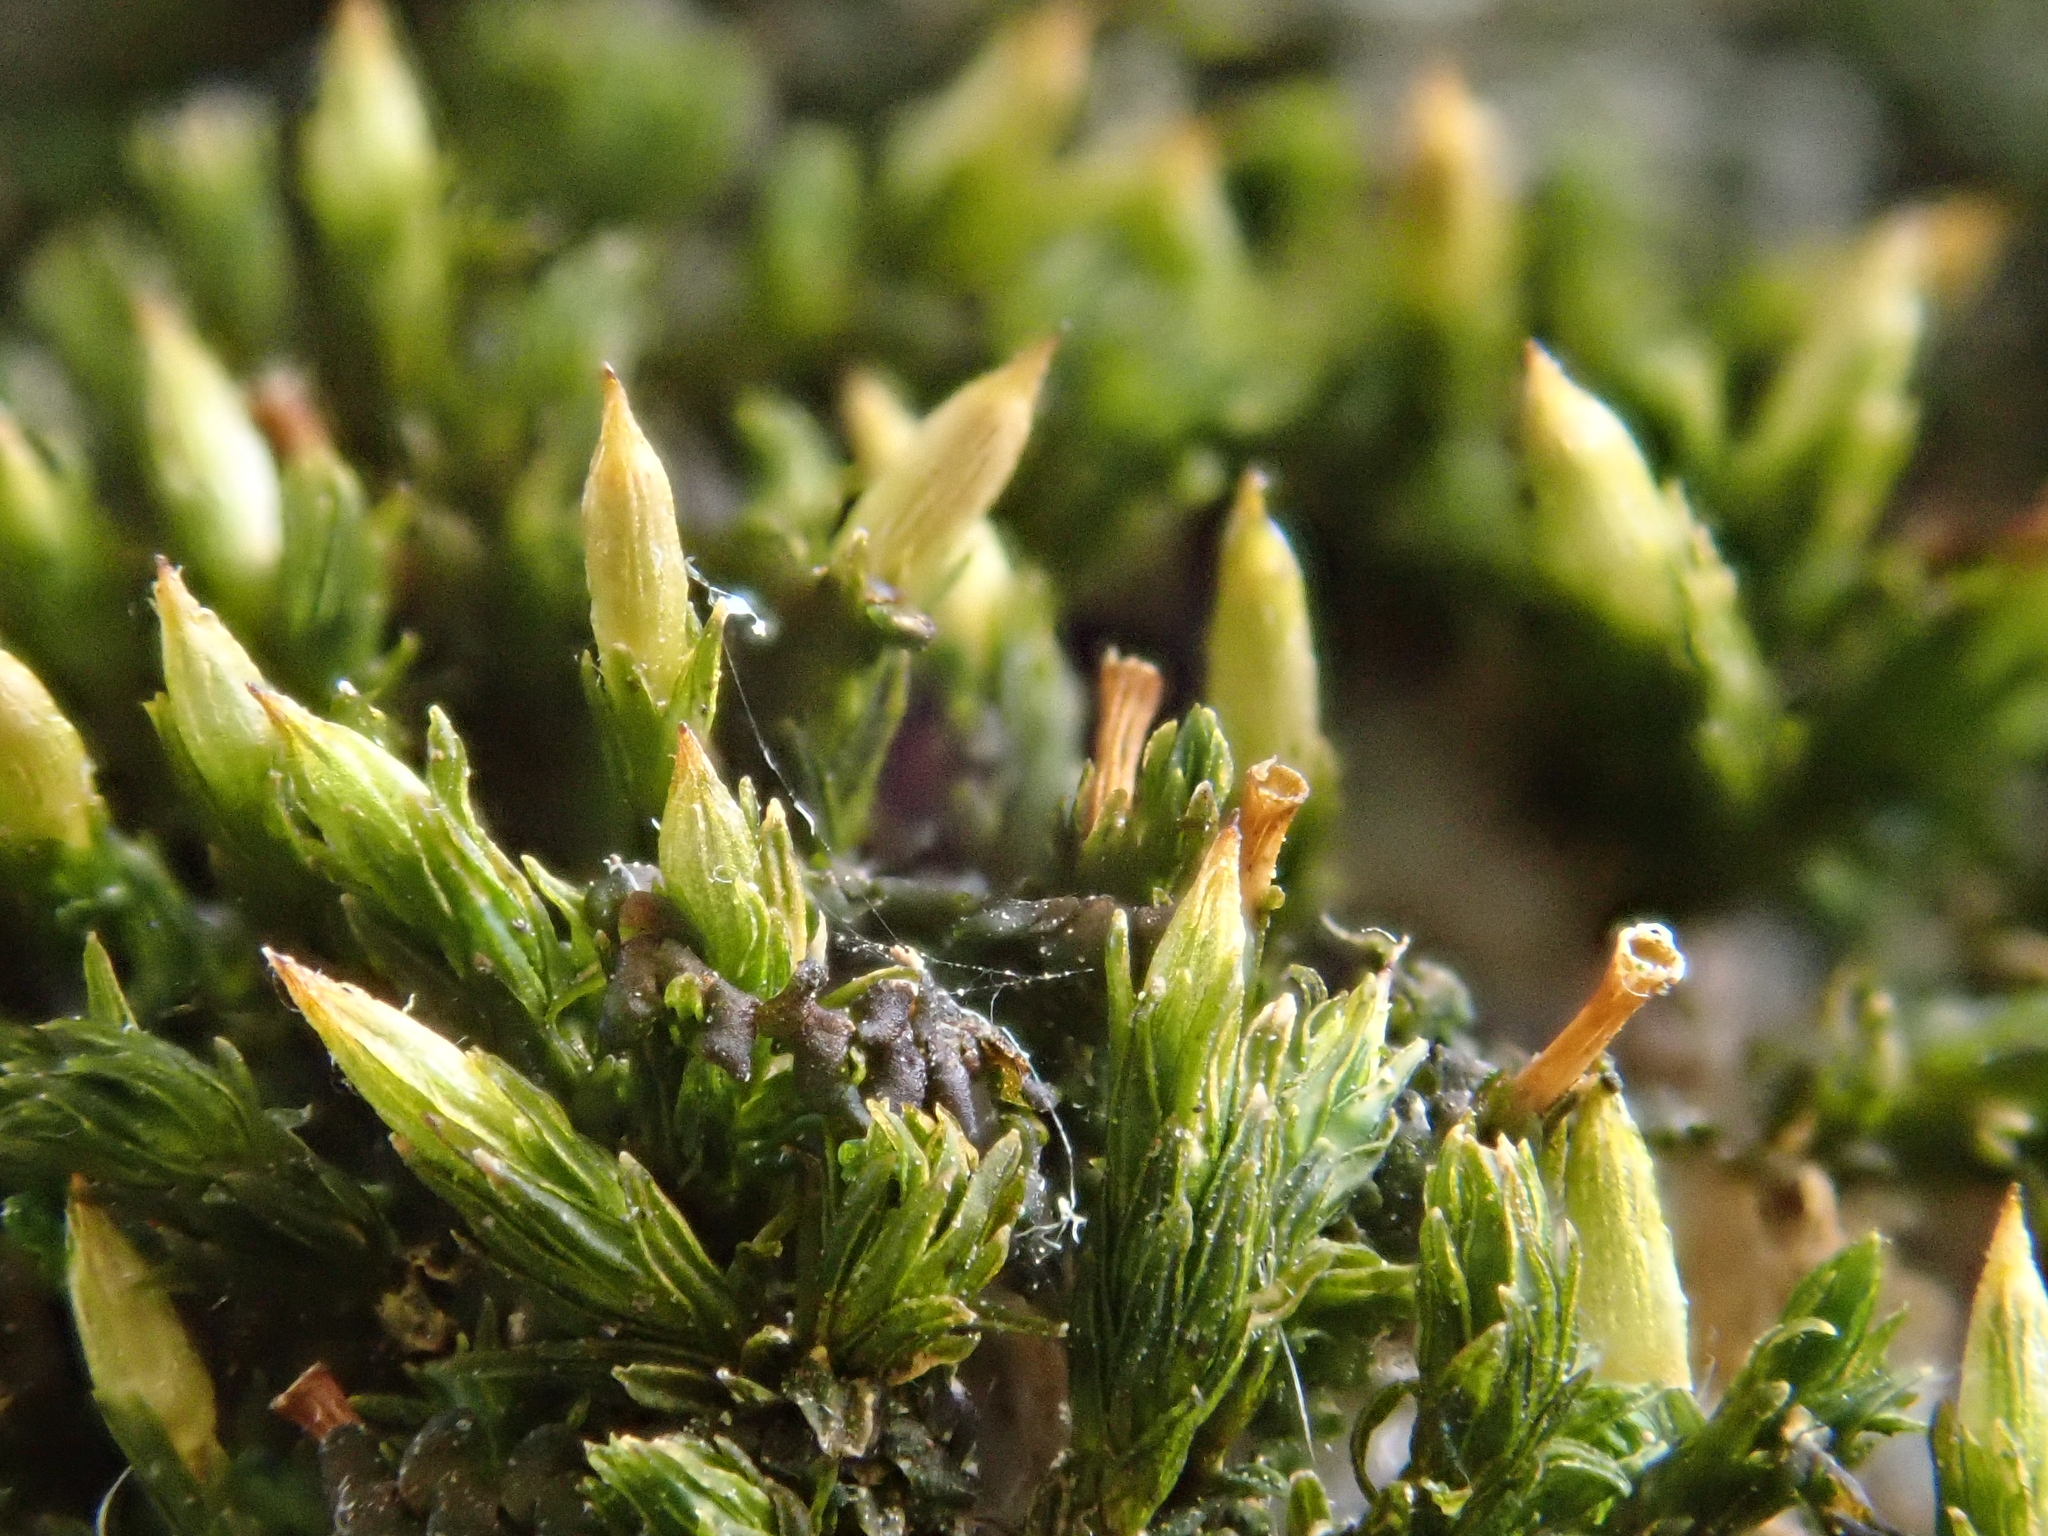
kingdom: Plantae
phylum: Bryophyta
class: Bryopsida
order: Orthotrichales
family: Orthotrichaceae
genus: Orthotrichum
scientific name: Orthotrichum tenellum
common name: Slender bristle-moss
